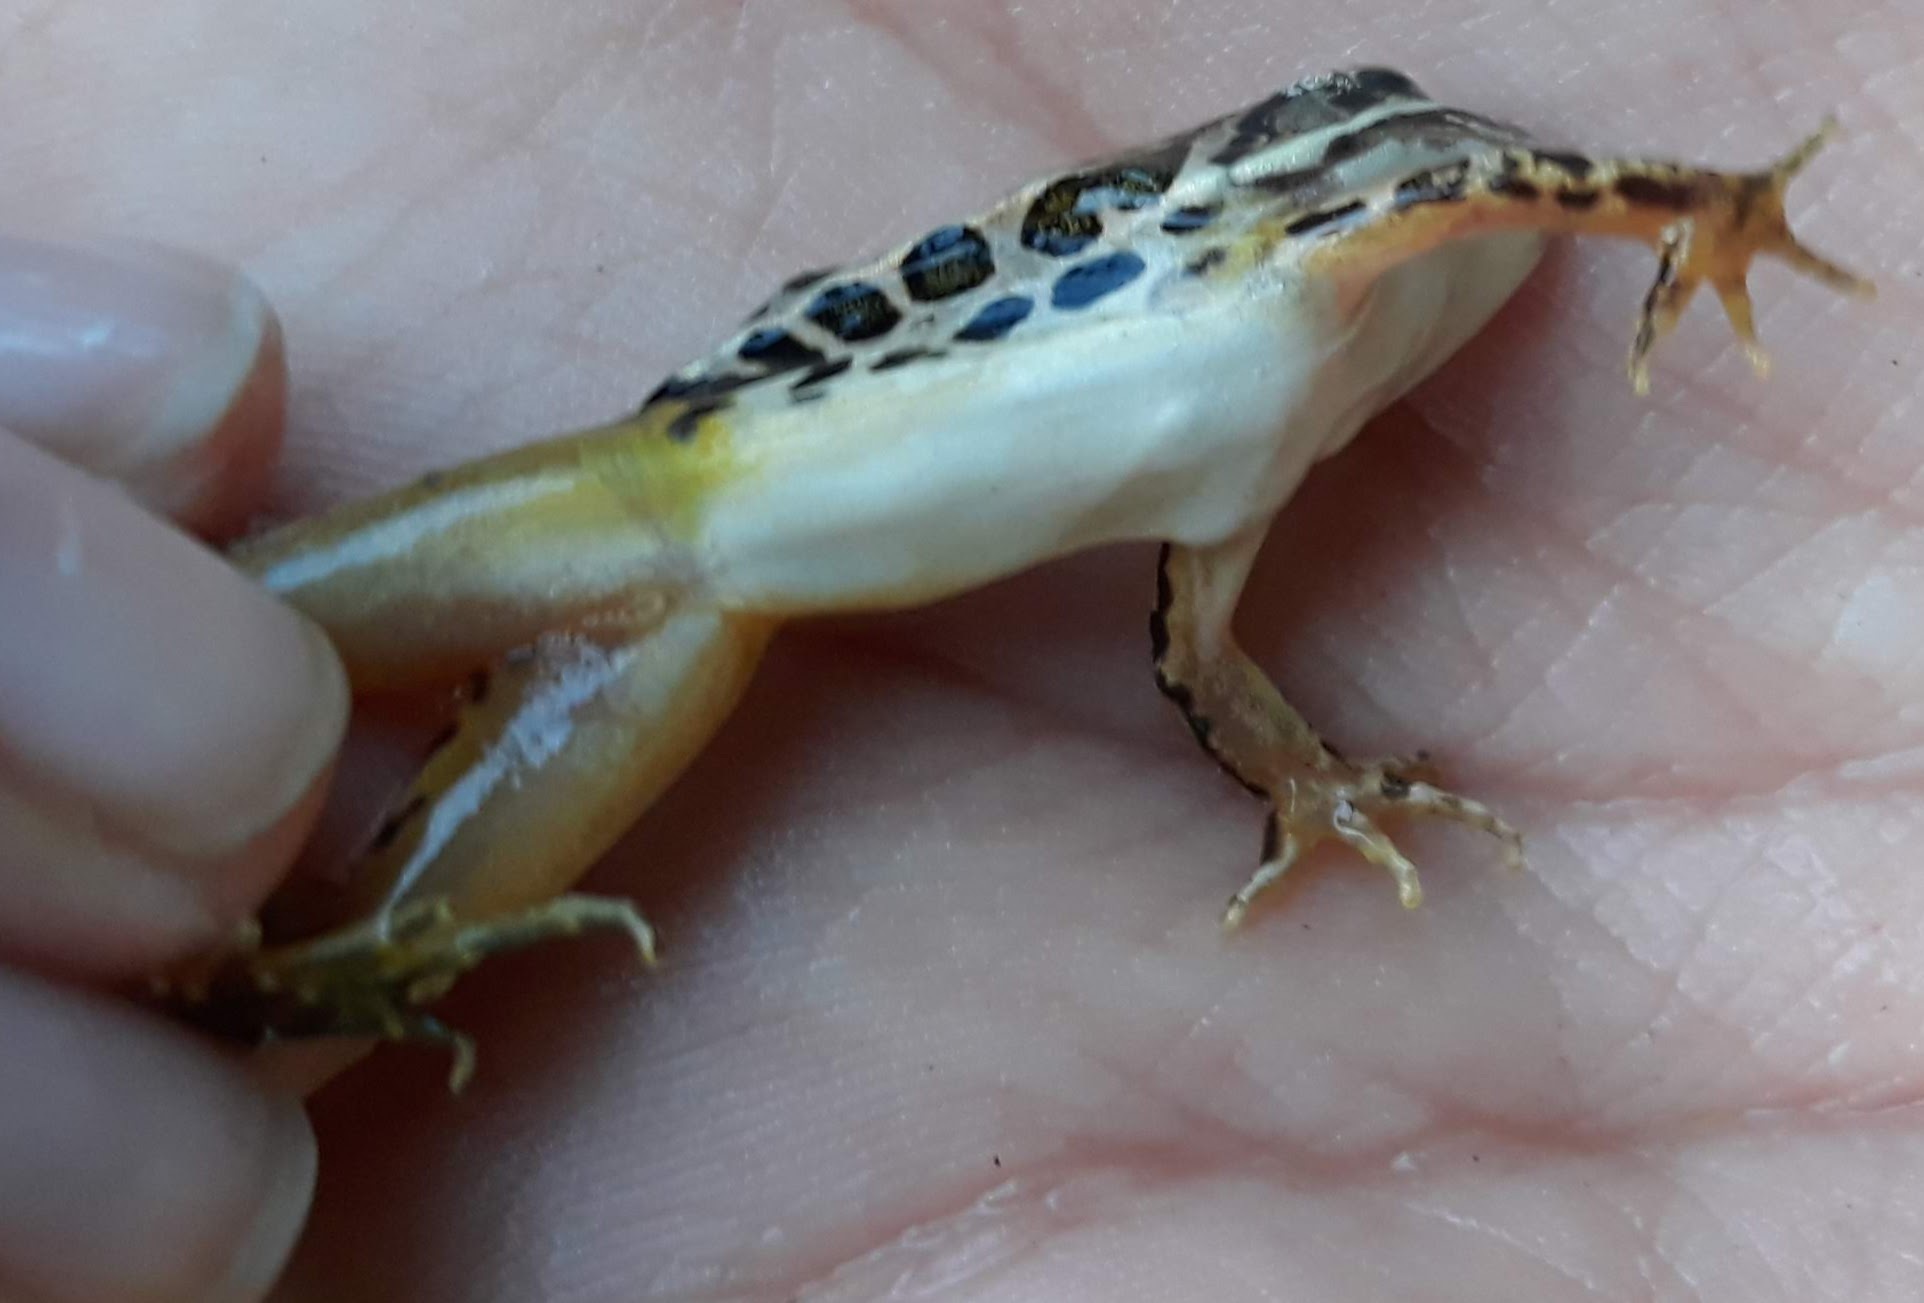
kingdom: Animalia
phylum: Chordata
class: Amphibia
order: Anura
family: Ranidae
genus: Lithobates
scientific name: Lithobates palustris
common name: Pickerel frog
